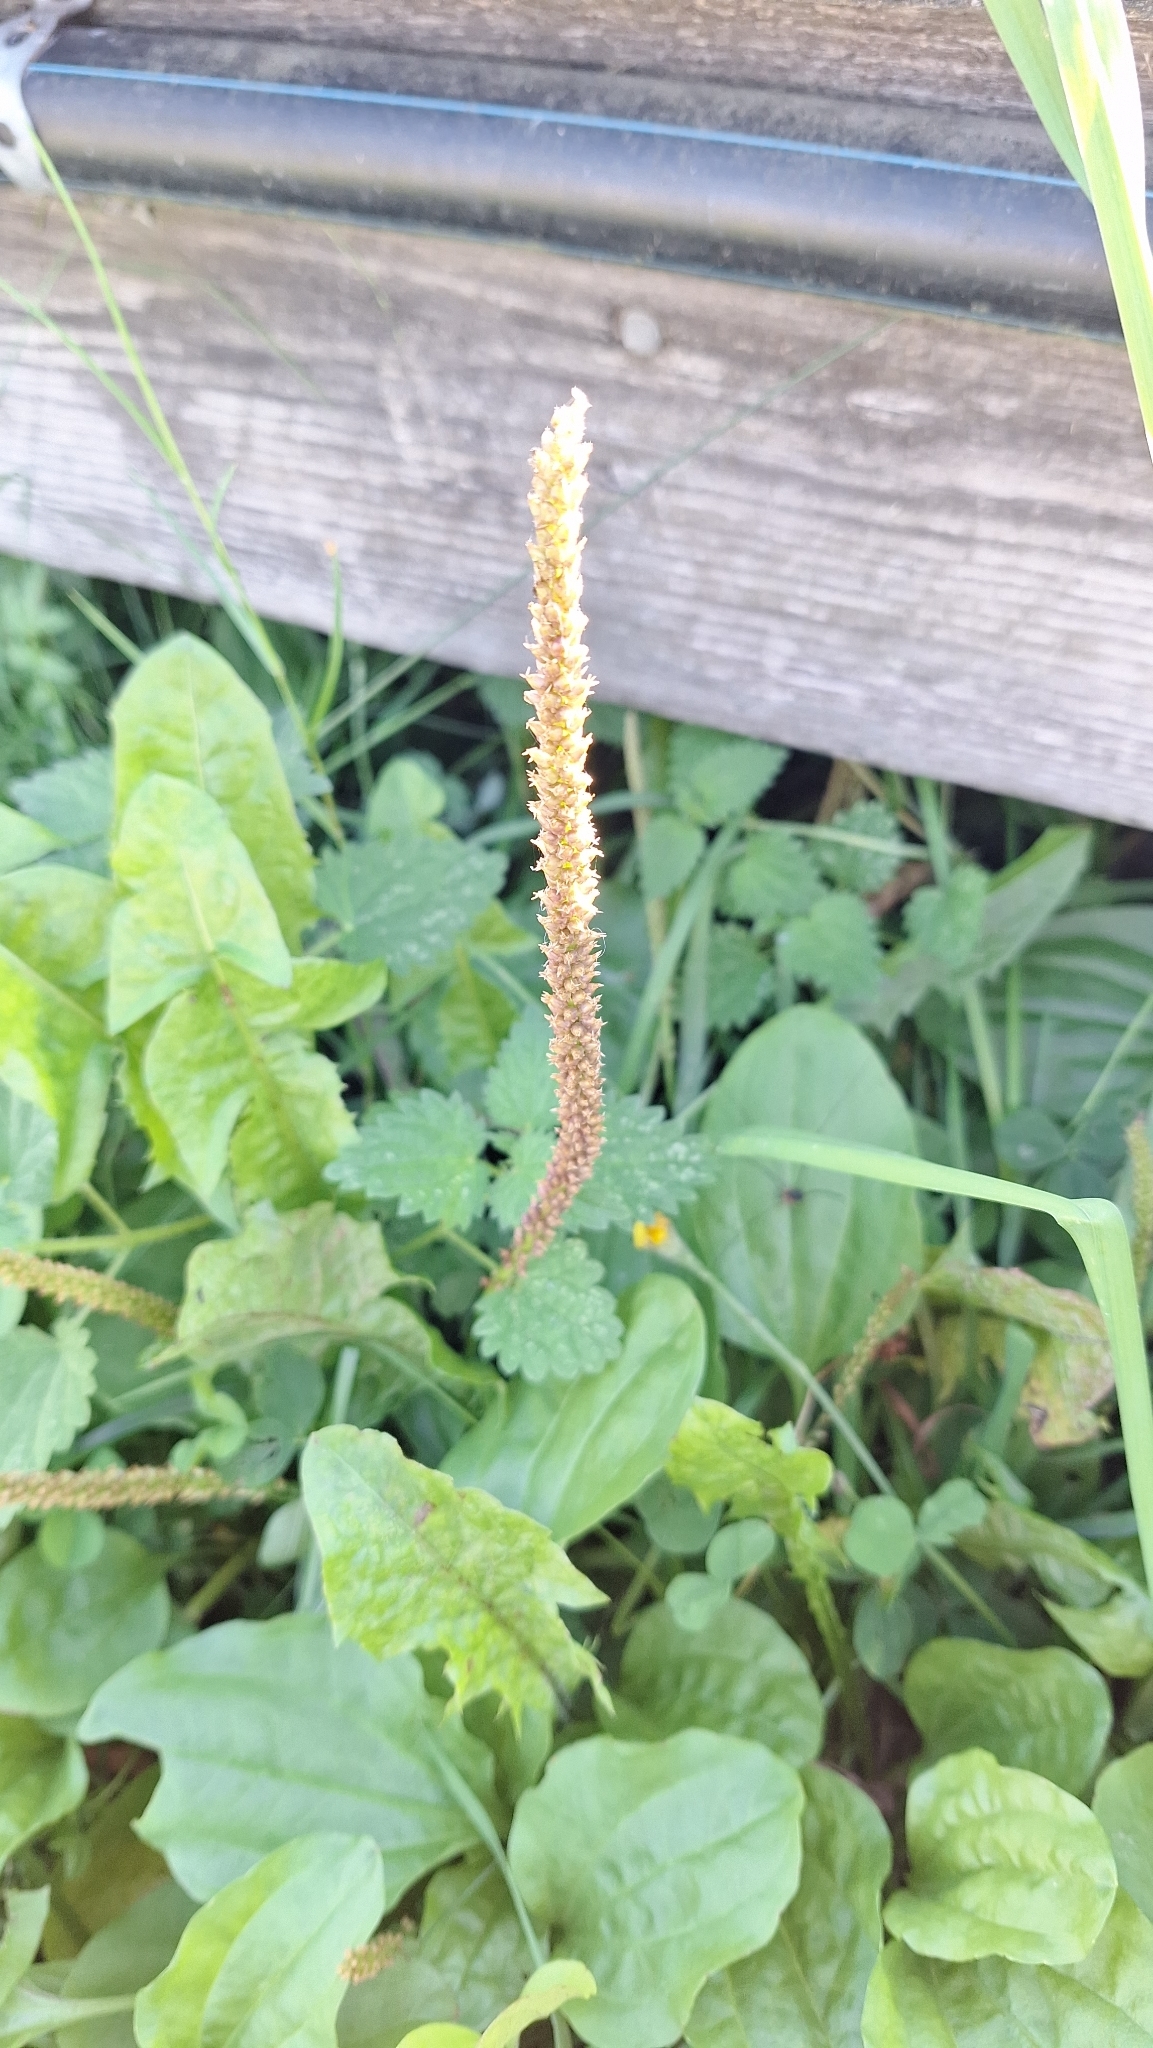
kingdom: Plantae
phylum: Tracheophyta
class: Magnoliopsida
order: Lamiales
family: Plantaginaceae
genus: Plantago
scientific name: Plantago major
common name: Common plantain
